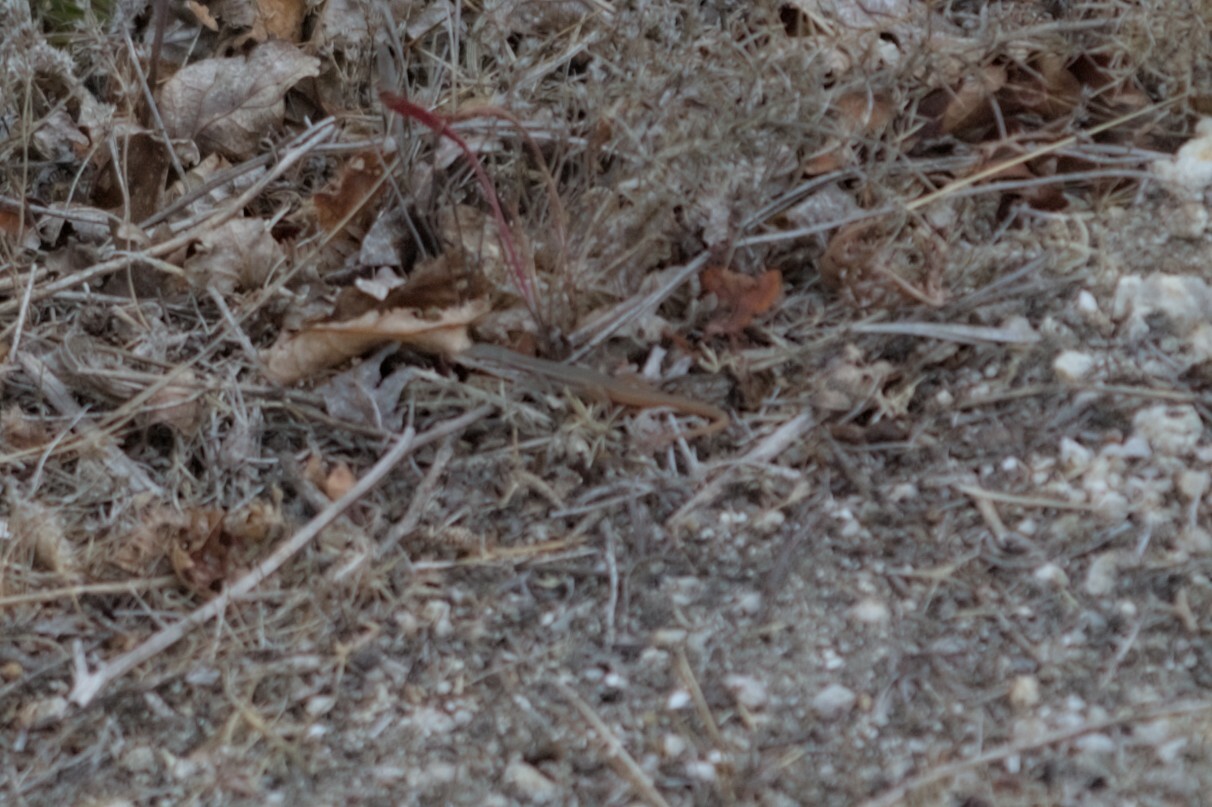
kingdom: Animalia
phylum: Chordata
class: Squamata
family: Lacertidae
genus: Psammodromus
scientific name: Psammodromus algirus
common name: Algerian psammodromus
